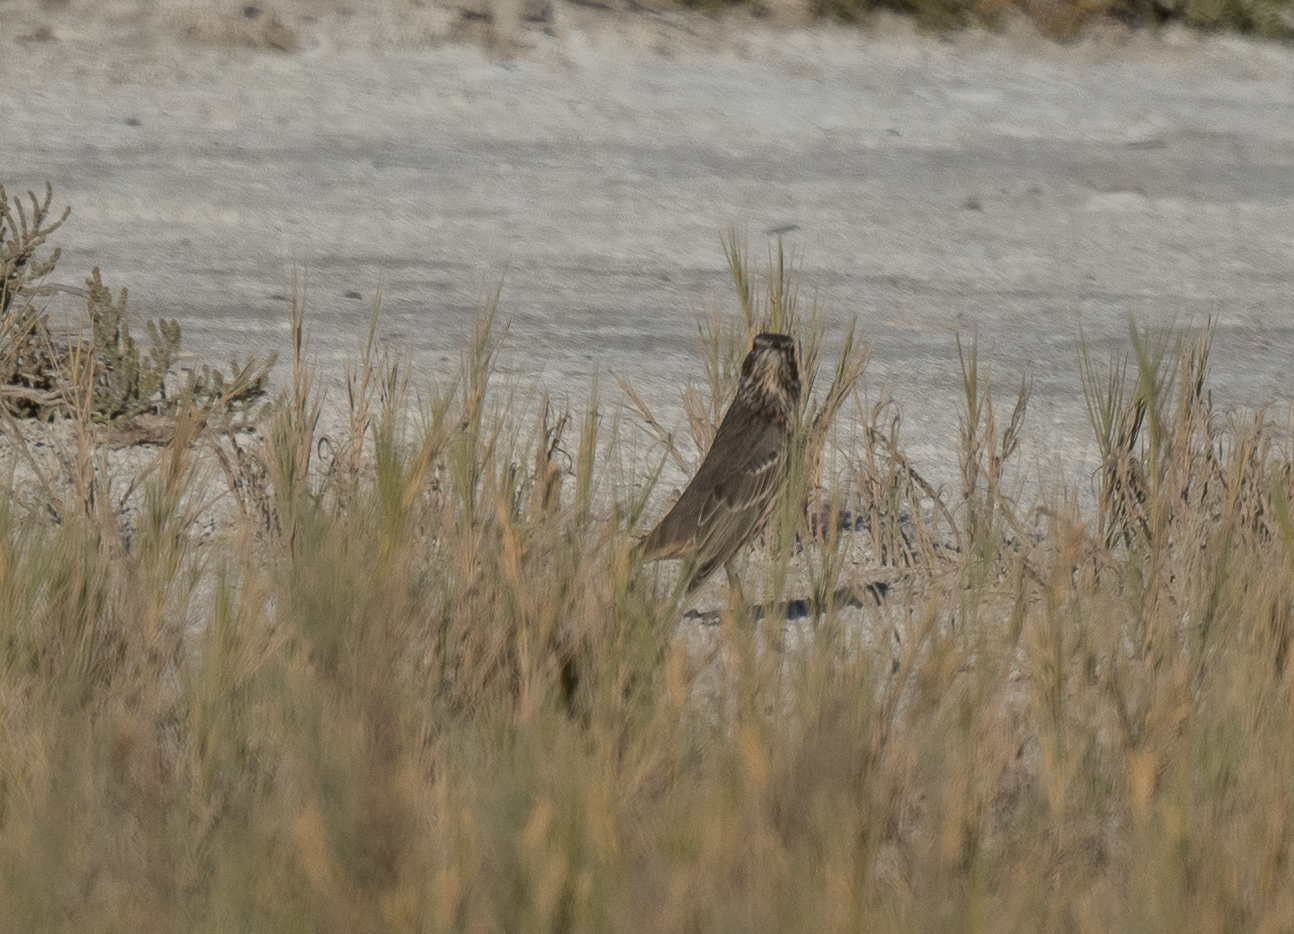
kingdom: Animalia
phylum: Chordata
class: Aves
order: Passeriformes
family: Mimidae
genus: Oreoscoptes
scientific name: Oreoscoptes montanus
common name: Sage thrasher
